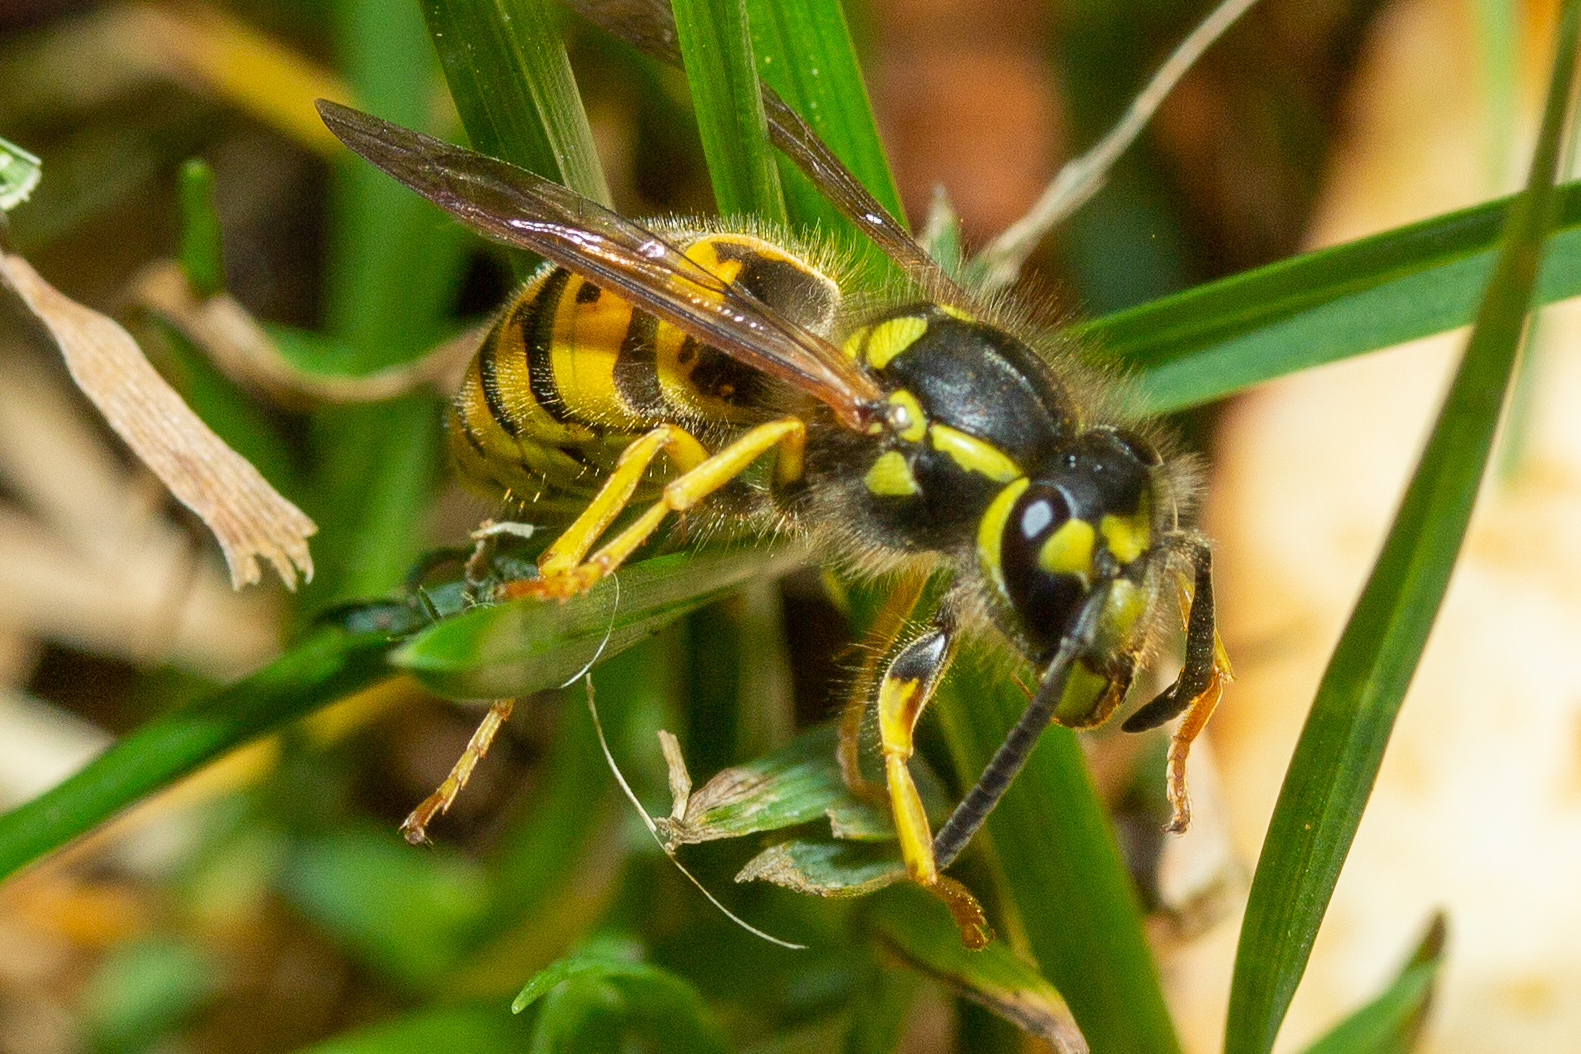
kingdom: Animalia
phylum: Arthropoda
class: Insecta
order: Hymenoptera
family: Vespidae
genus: Vespula
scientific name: Vespula germanica
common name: German wasp
